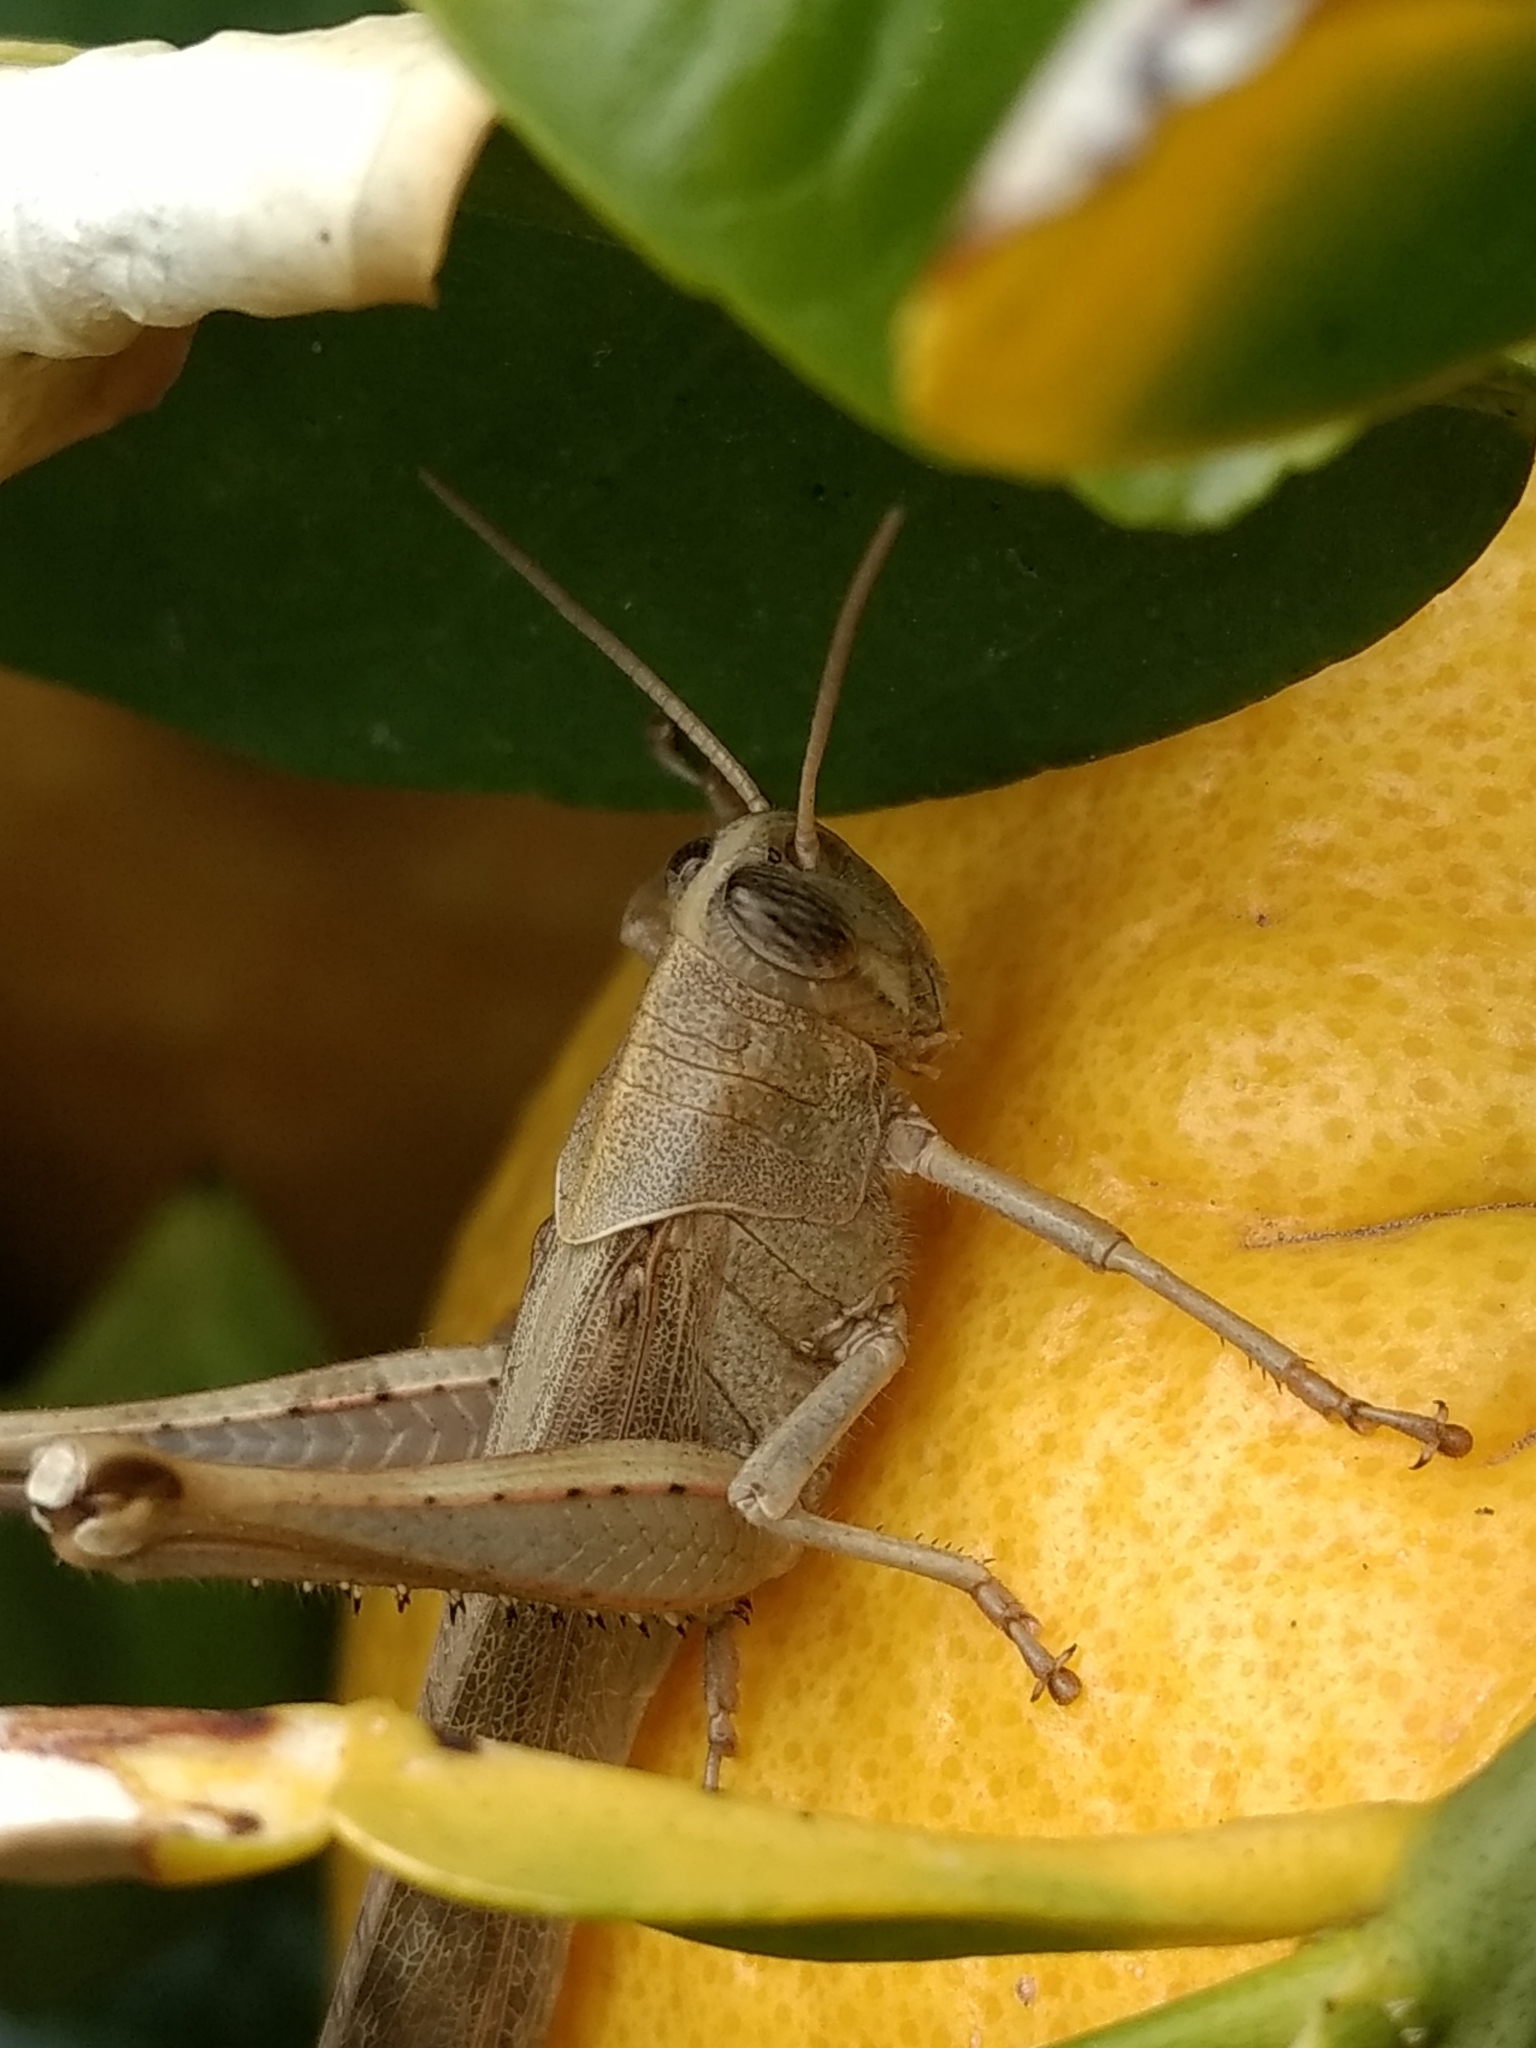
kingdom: Animalia
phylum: Arthropoda
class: Insecta
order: Orthoptera
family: Acrididae
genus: Schistocerca
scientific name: Schistocerca nitens
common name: Vagrant grasshopper
